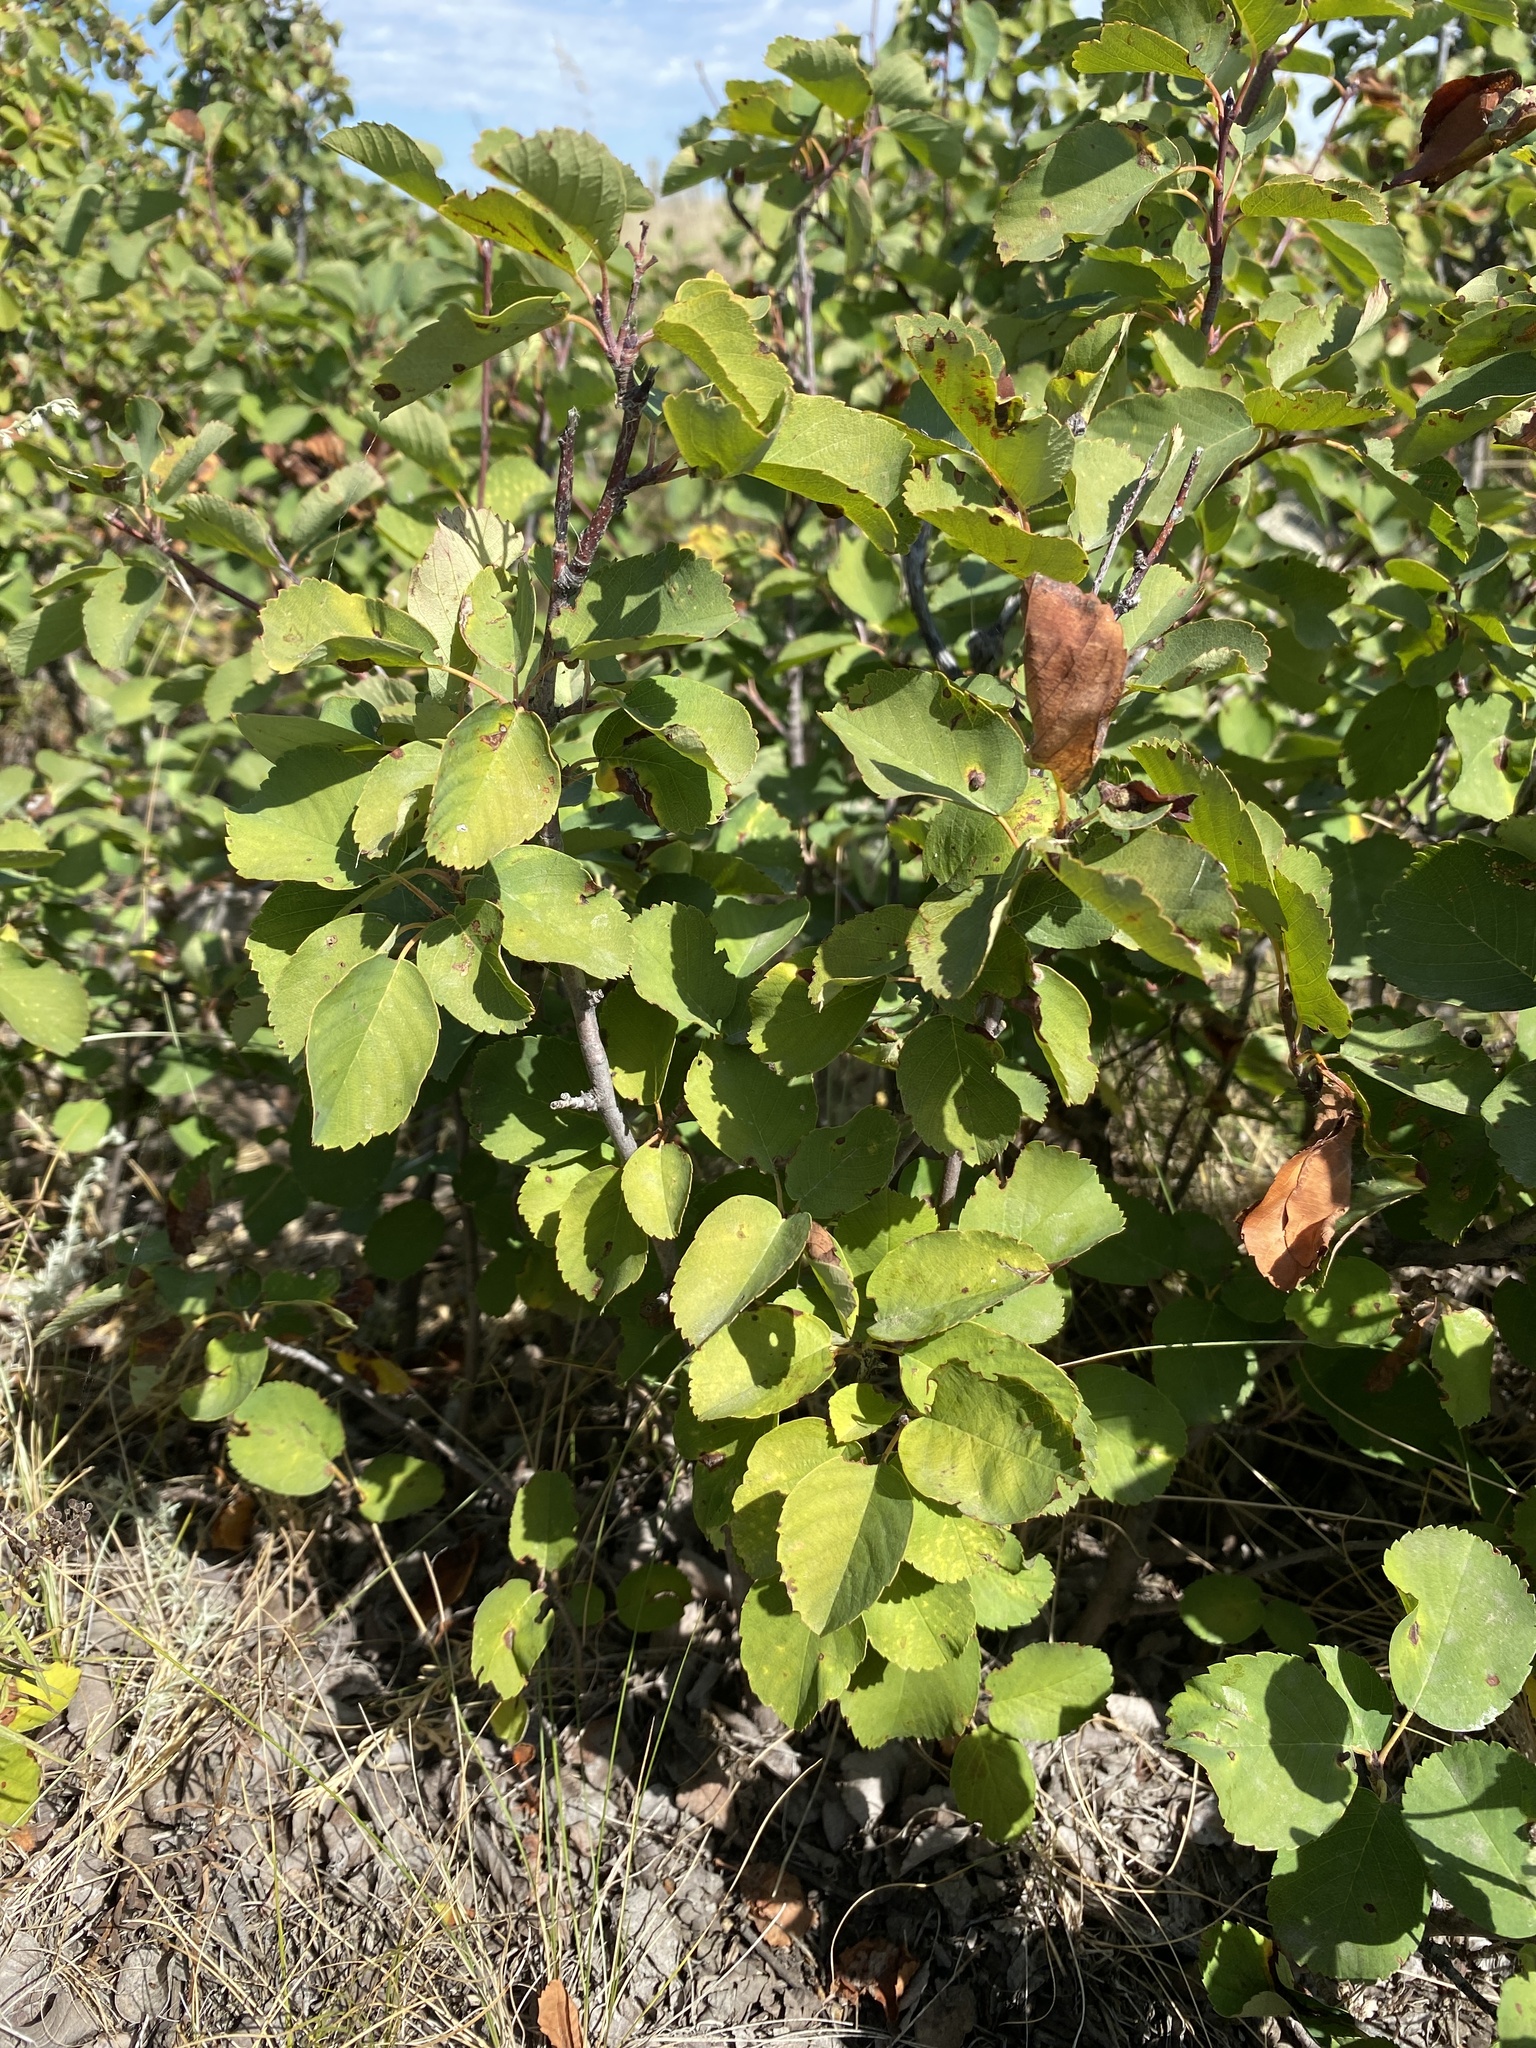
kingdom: Plantae
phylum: Tracheophyta
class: Magnoliopsida
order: Rosales
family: Rosaceae
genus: Amelanchier
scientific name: Amelanchier alnifolia
